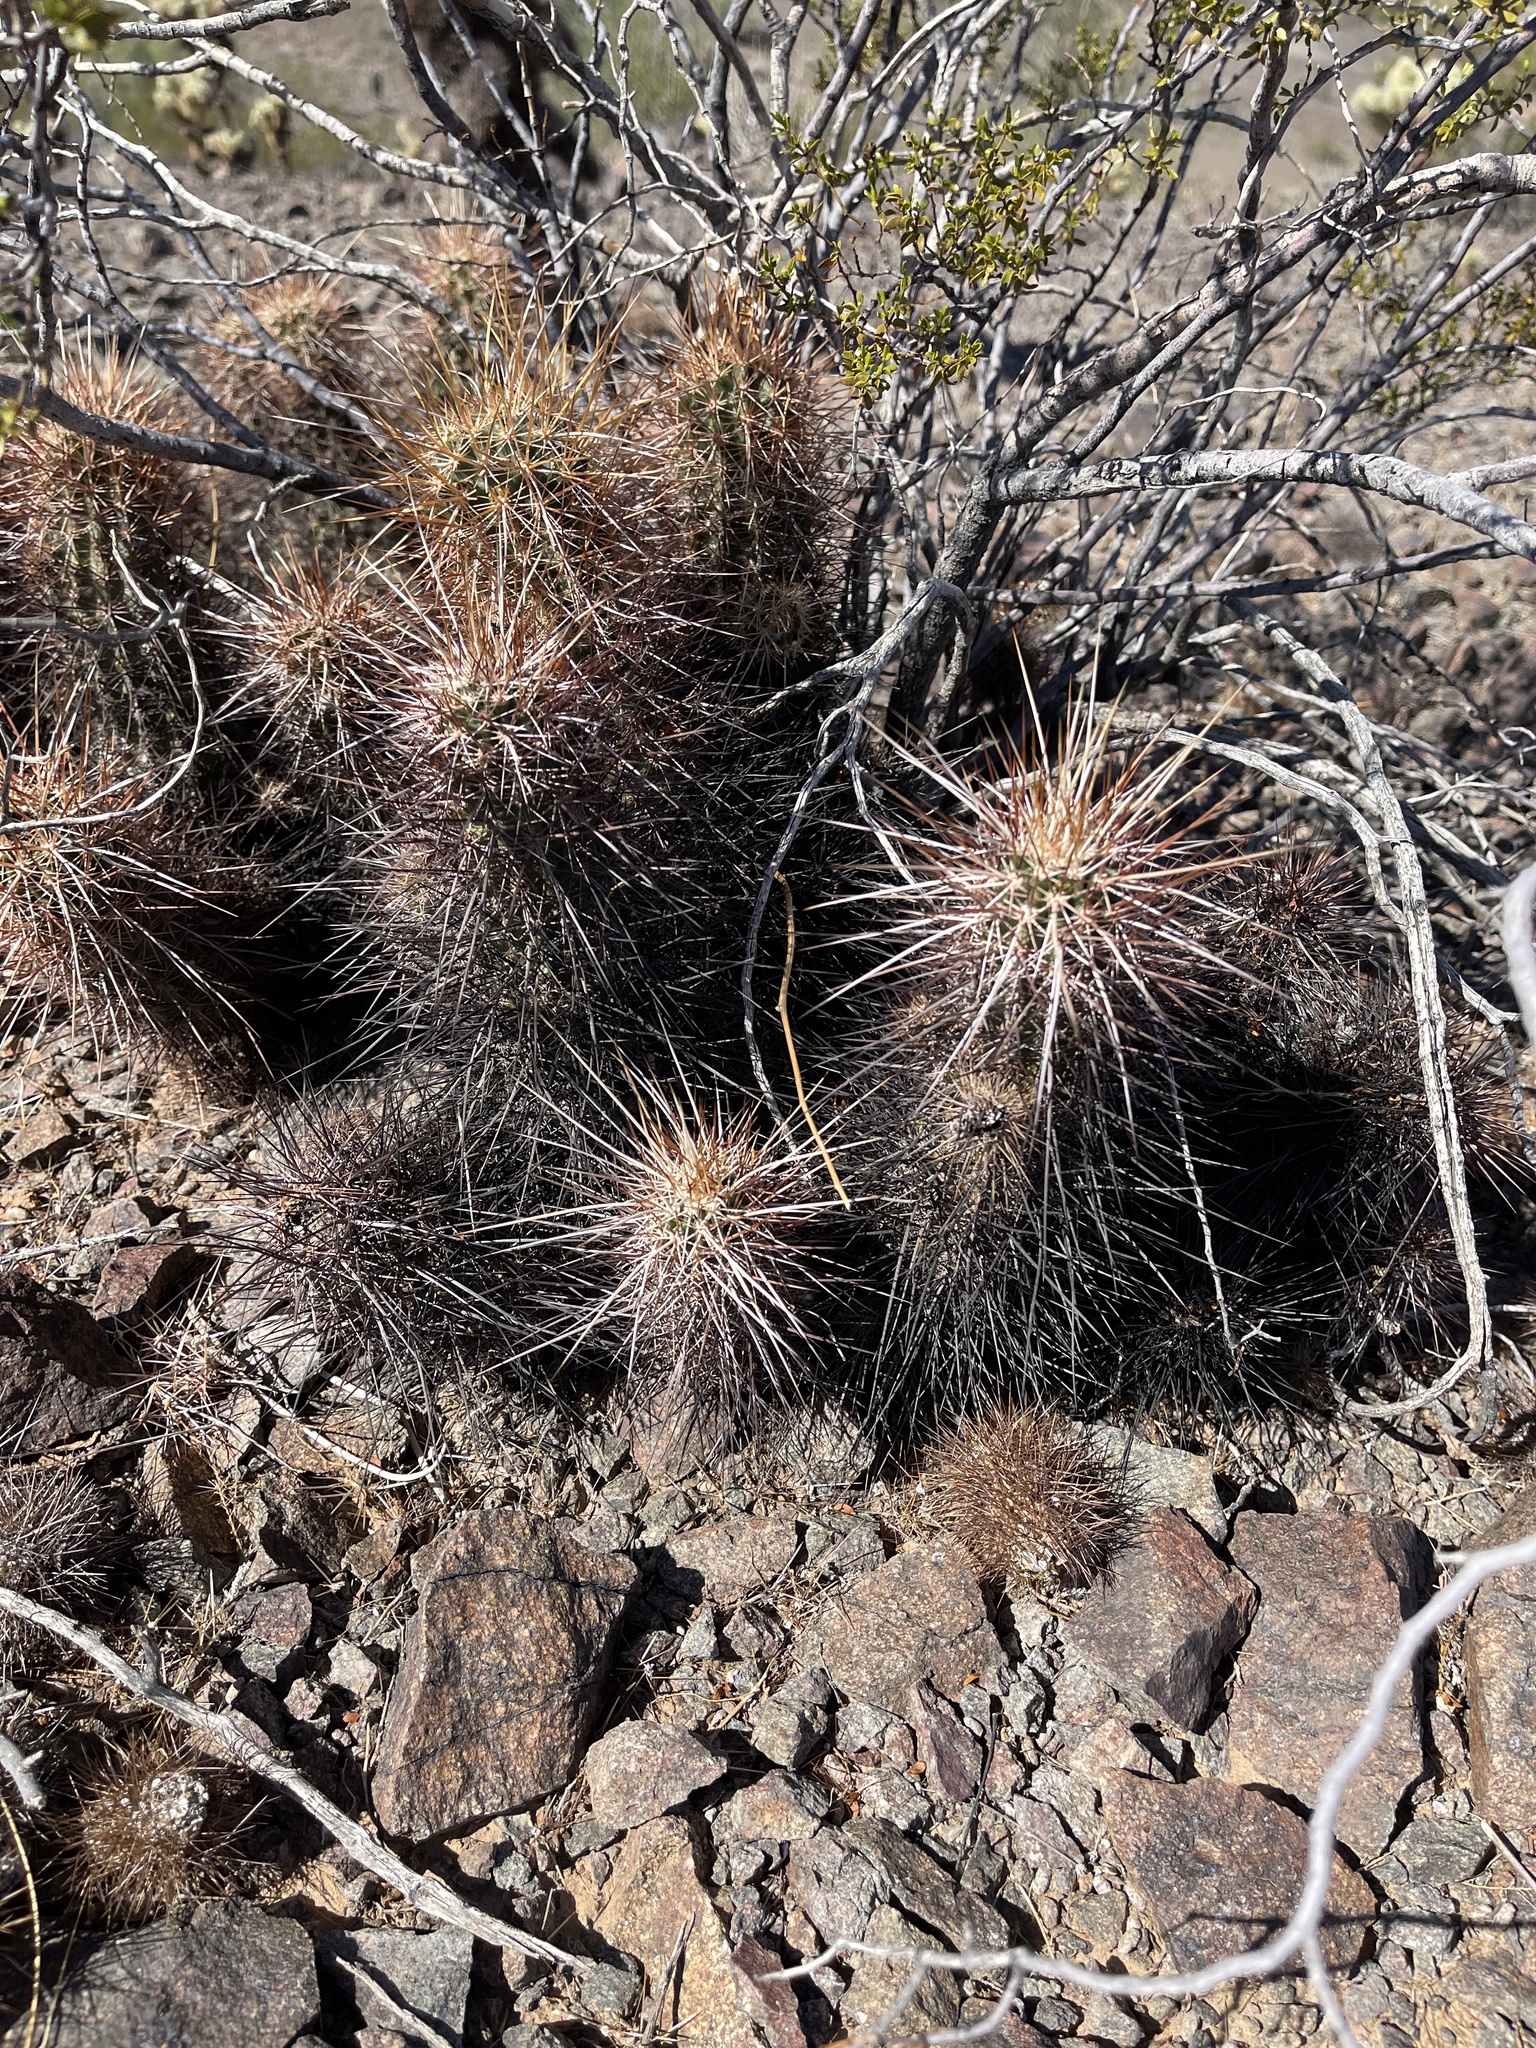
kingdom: Plantae
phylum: Tracheophyta
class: Magnoliopsida
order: Caryophyllales
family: Cactaceae
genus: Echinocereus
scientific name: Echinocereus engelmannii
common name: Engelmann's hedgehog cactus
